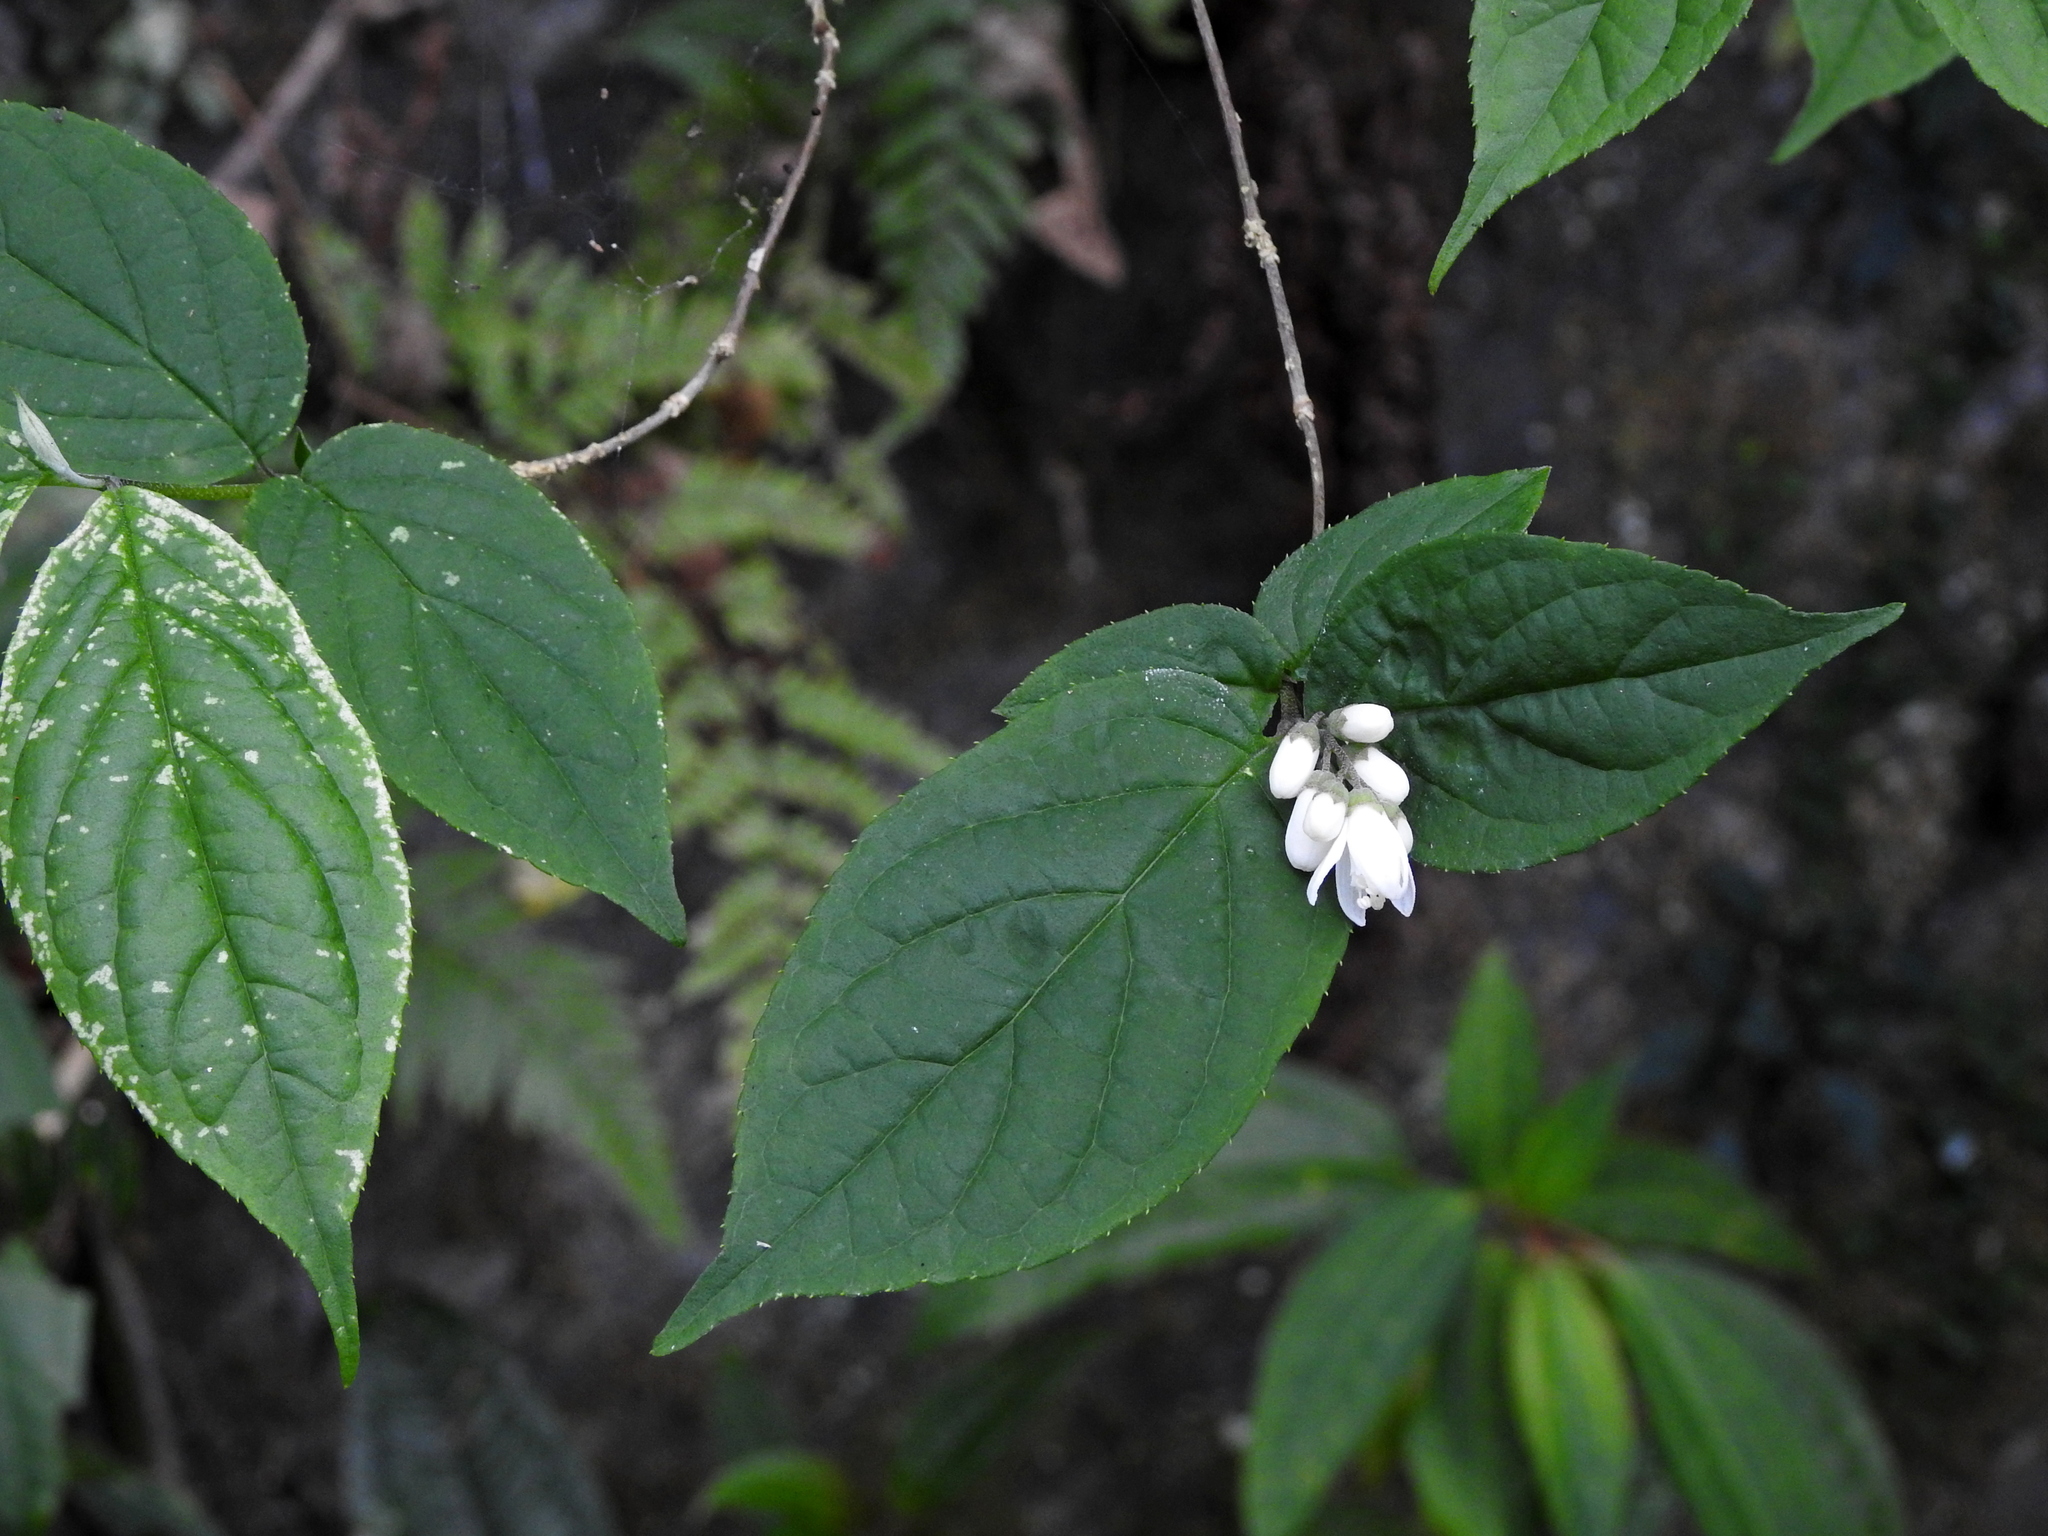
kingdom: Plantae
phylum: Tracheophyta
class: Magnoliopsida
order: Cornales
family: Hydrangeaceae
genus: Deutzia
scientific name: Deutzia taiwanensis
